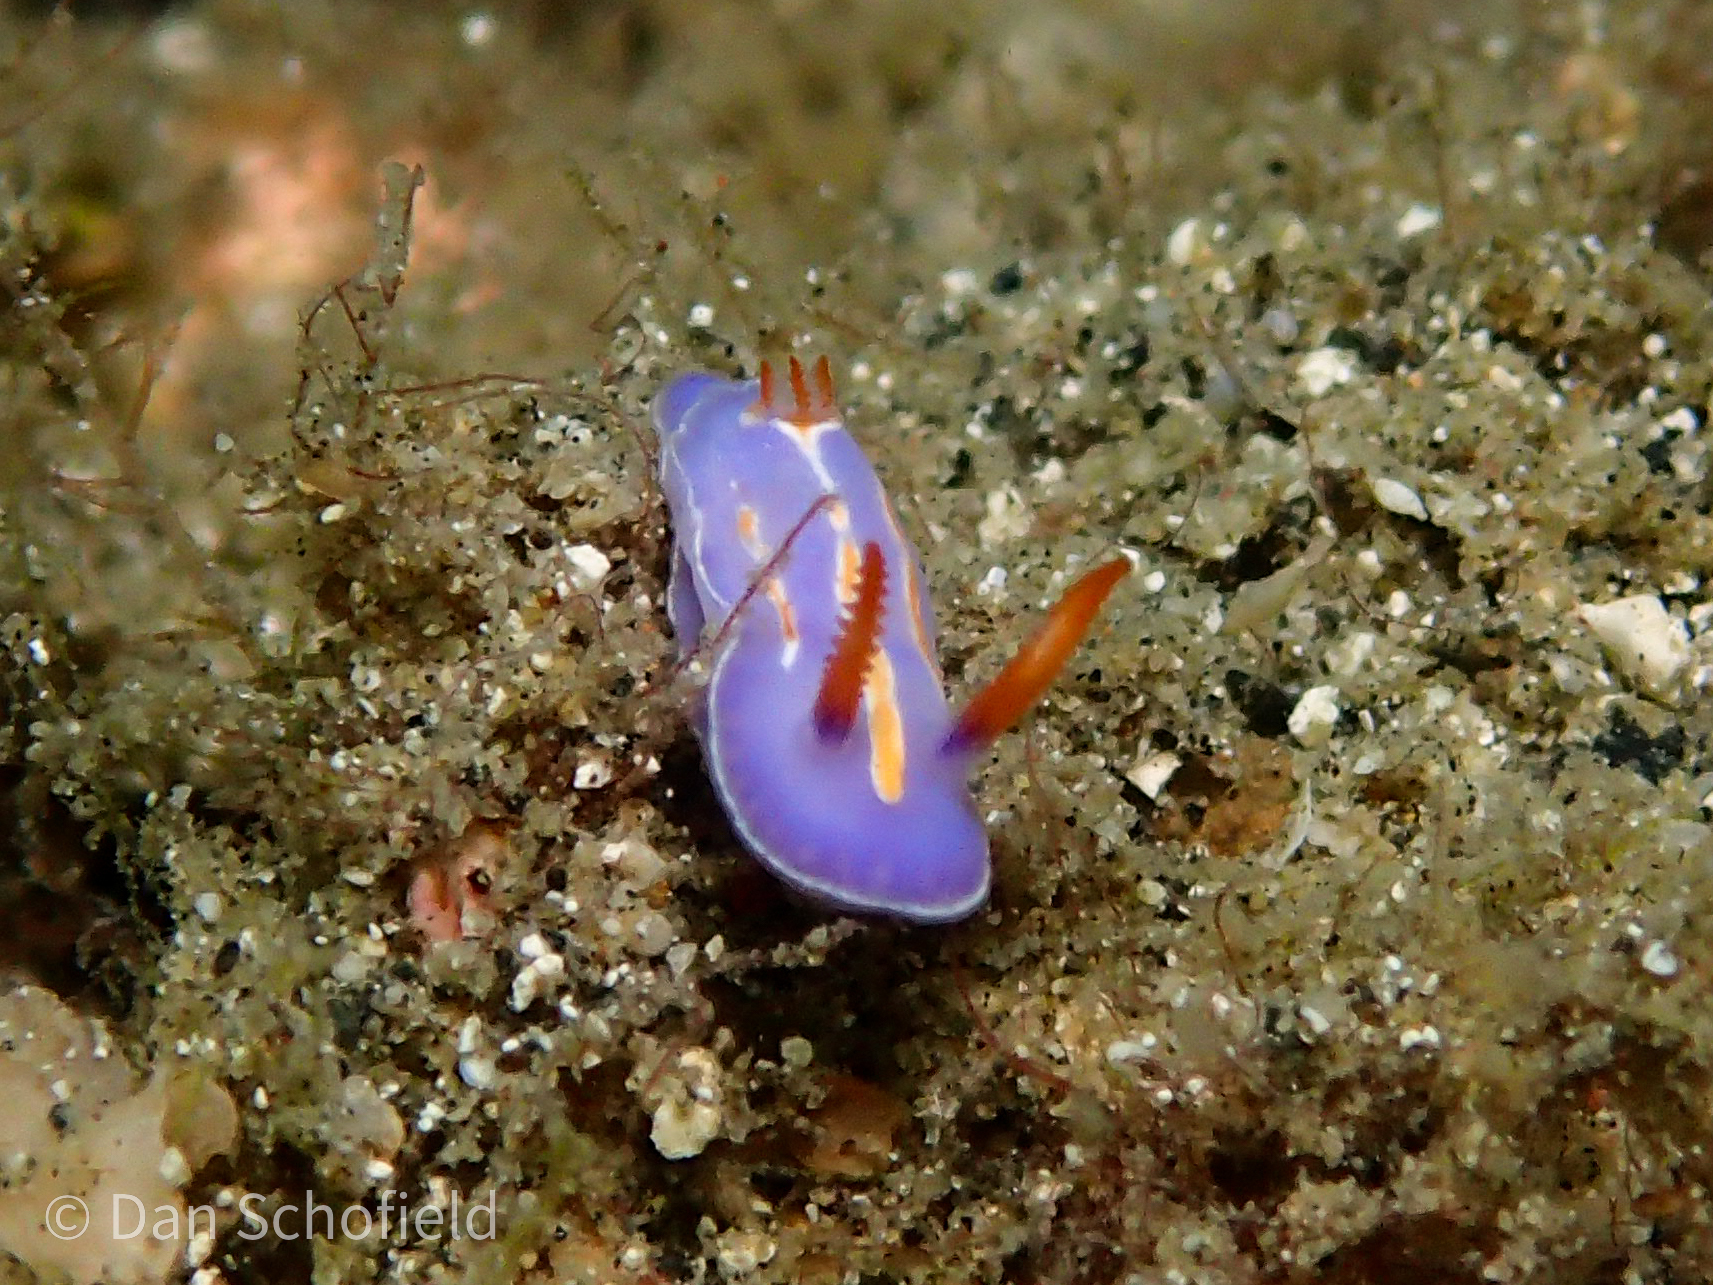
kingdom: Animalia
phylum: Mollusca
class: Gastropoda
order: Nudibranchia
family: Chromodorididae
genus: Mexichromis
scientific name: Mexichromis trilineata
